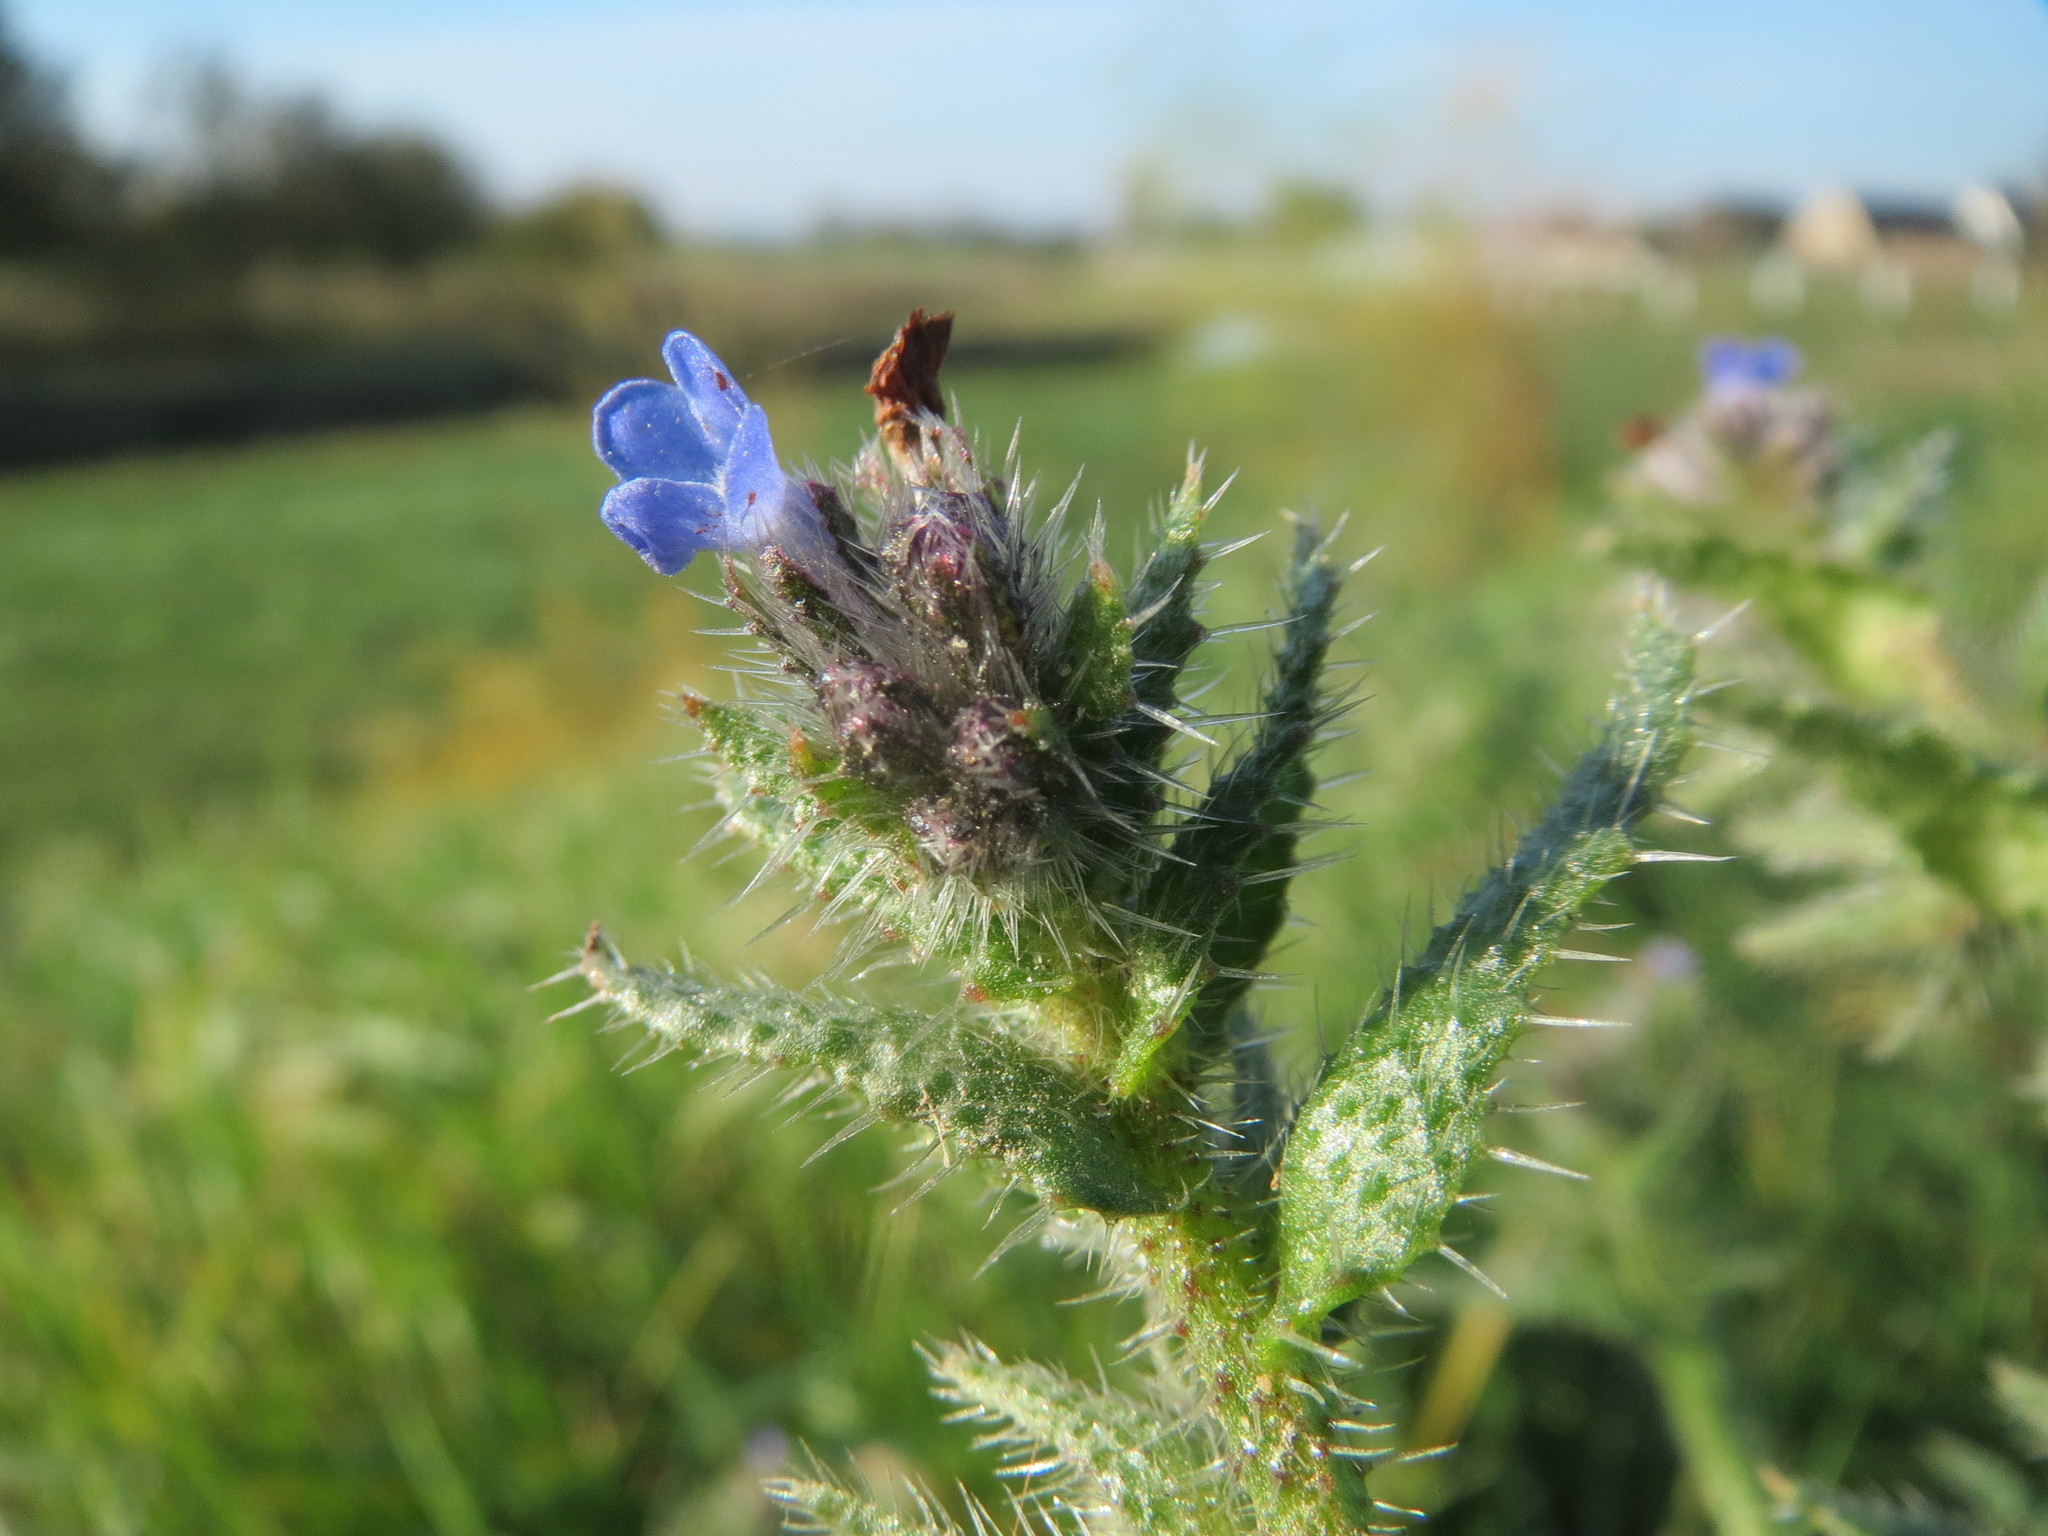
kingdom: Plantae
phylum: Tracheophyta
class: Magnoliopsida
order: Boraginales
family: Boraginaceae
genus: Lycopsis
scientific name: Lycopsis arvensis
